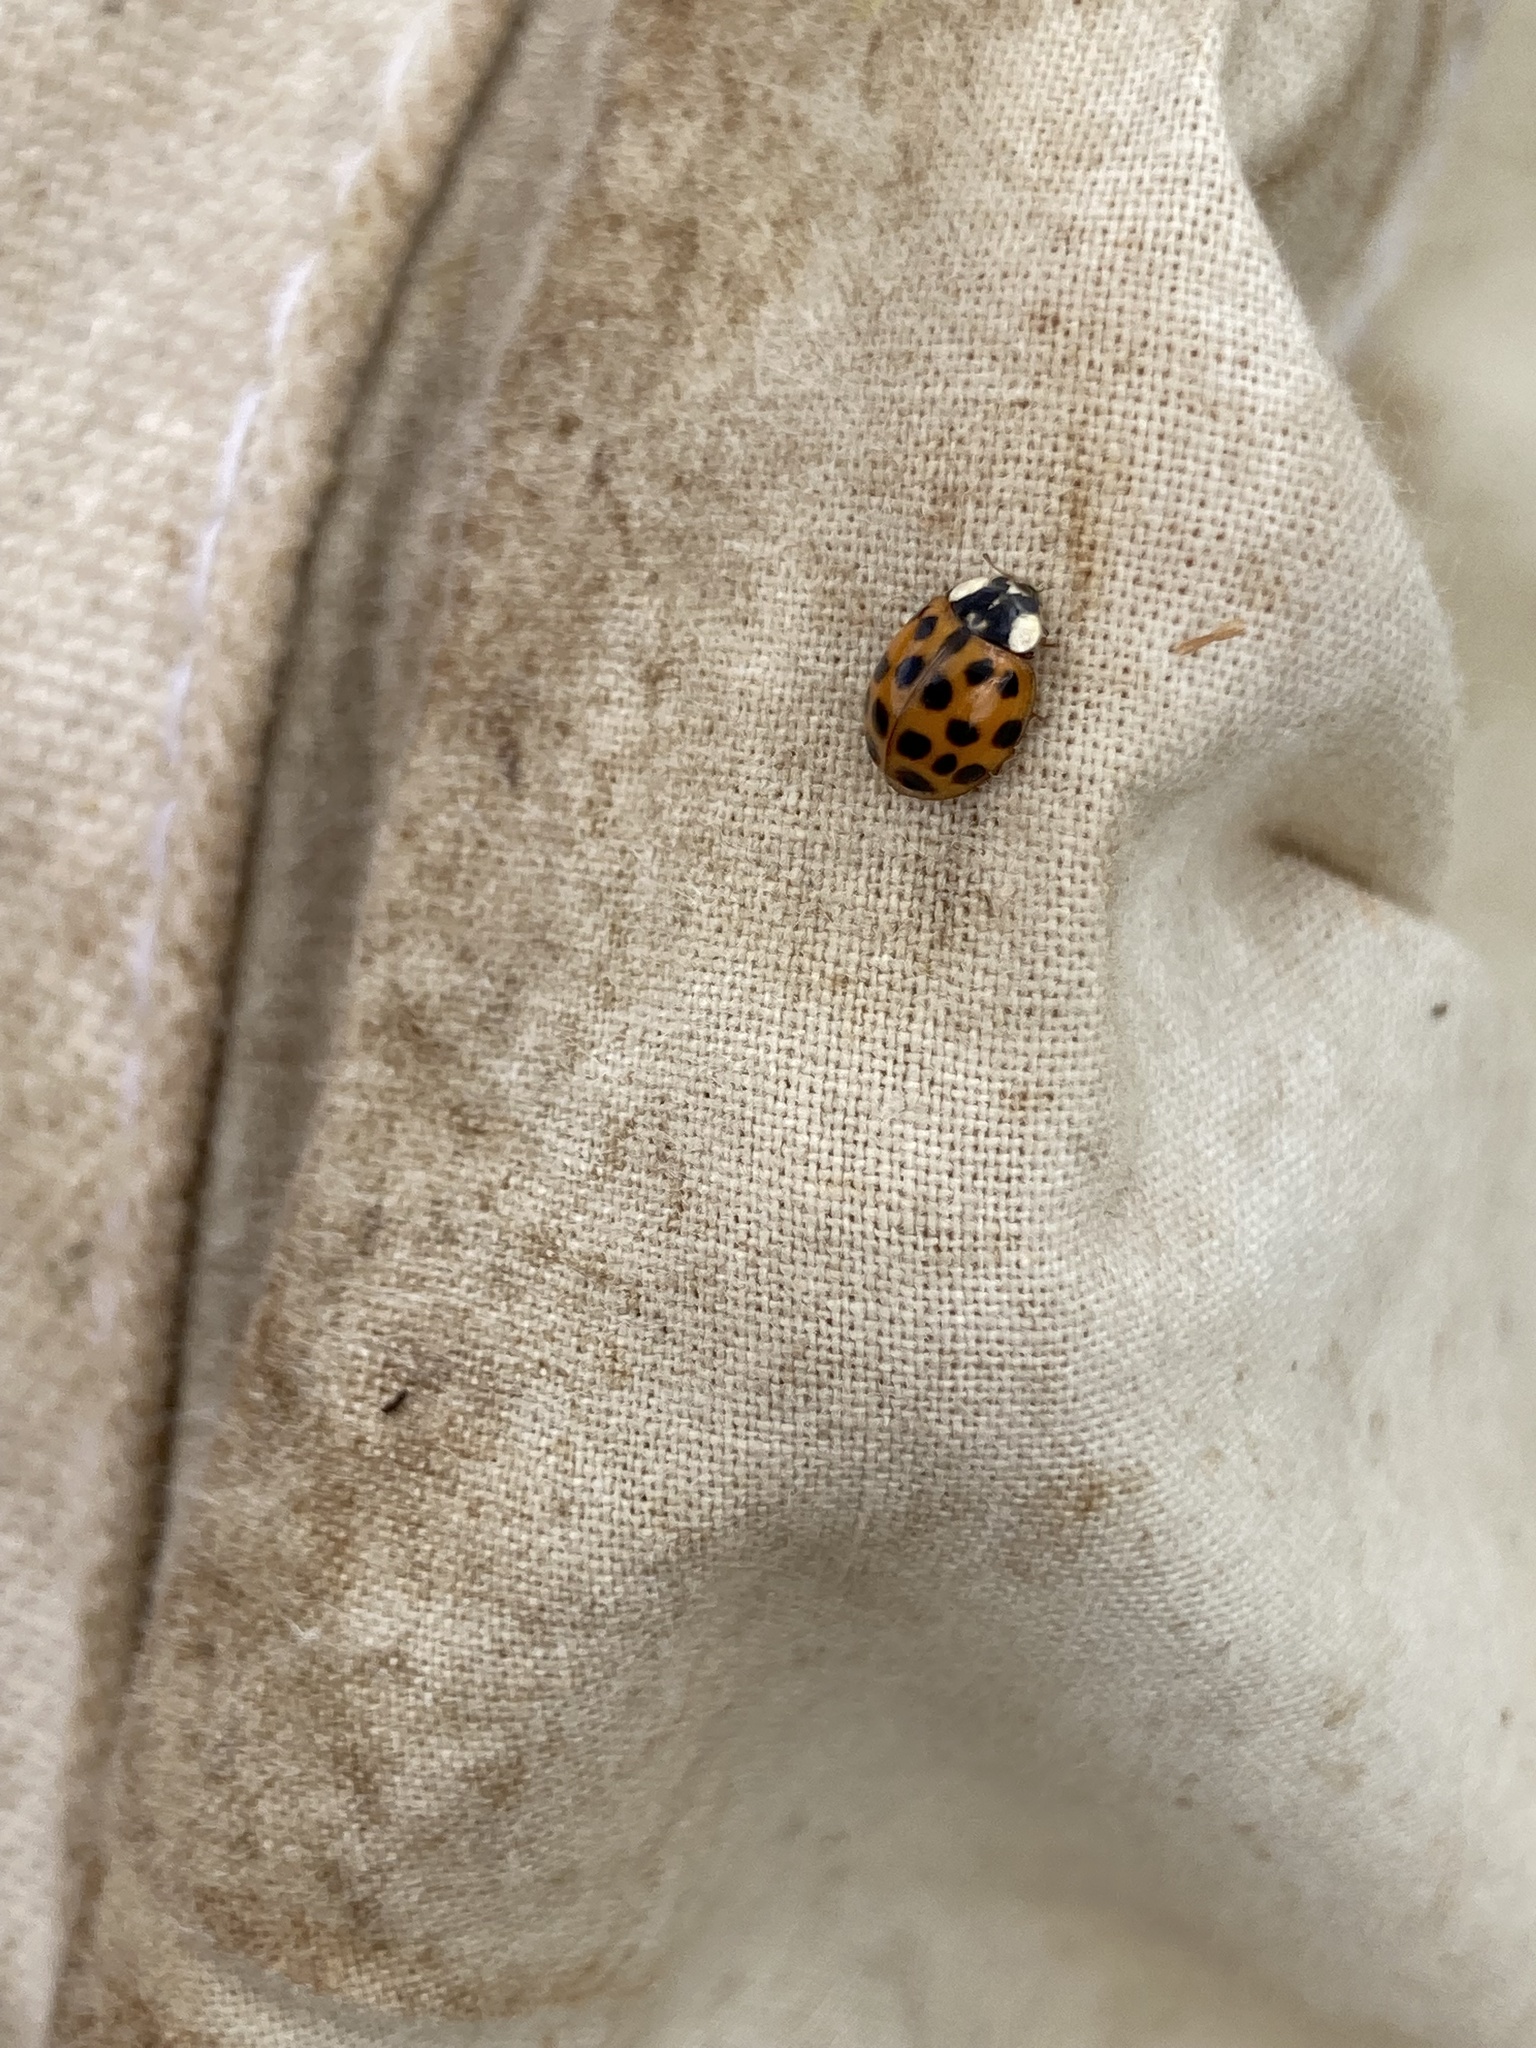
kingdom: Animalia
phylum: Arthropoda
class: Insecta
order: Coleoptera
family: Coccinellidae
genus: Harmonia
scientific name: Harmonia axyridis
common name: Harlequin ladybird
